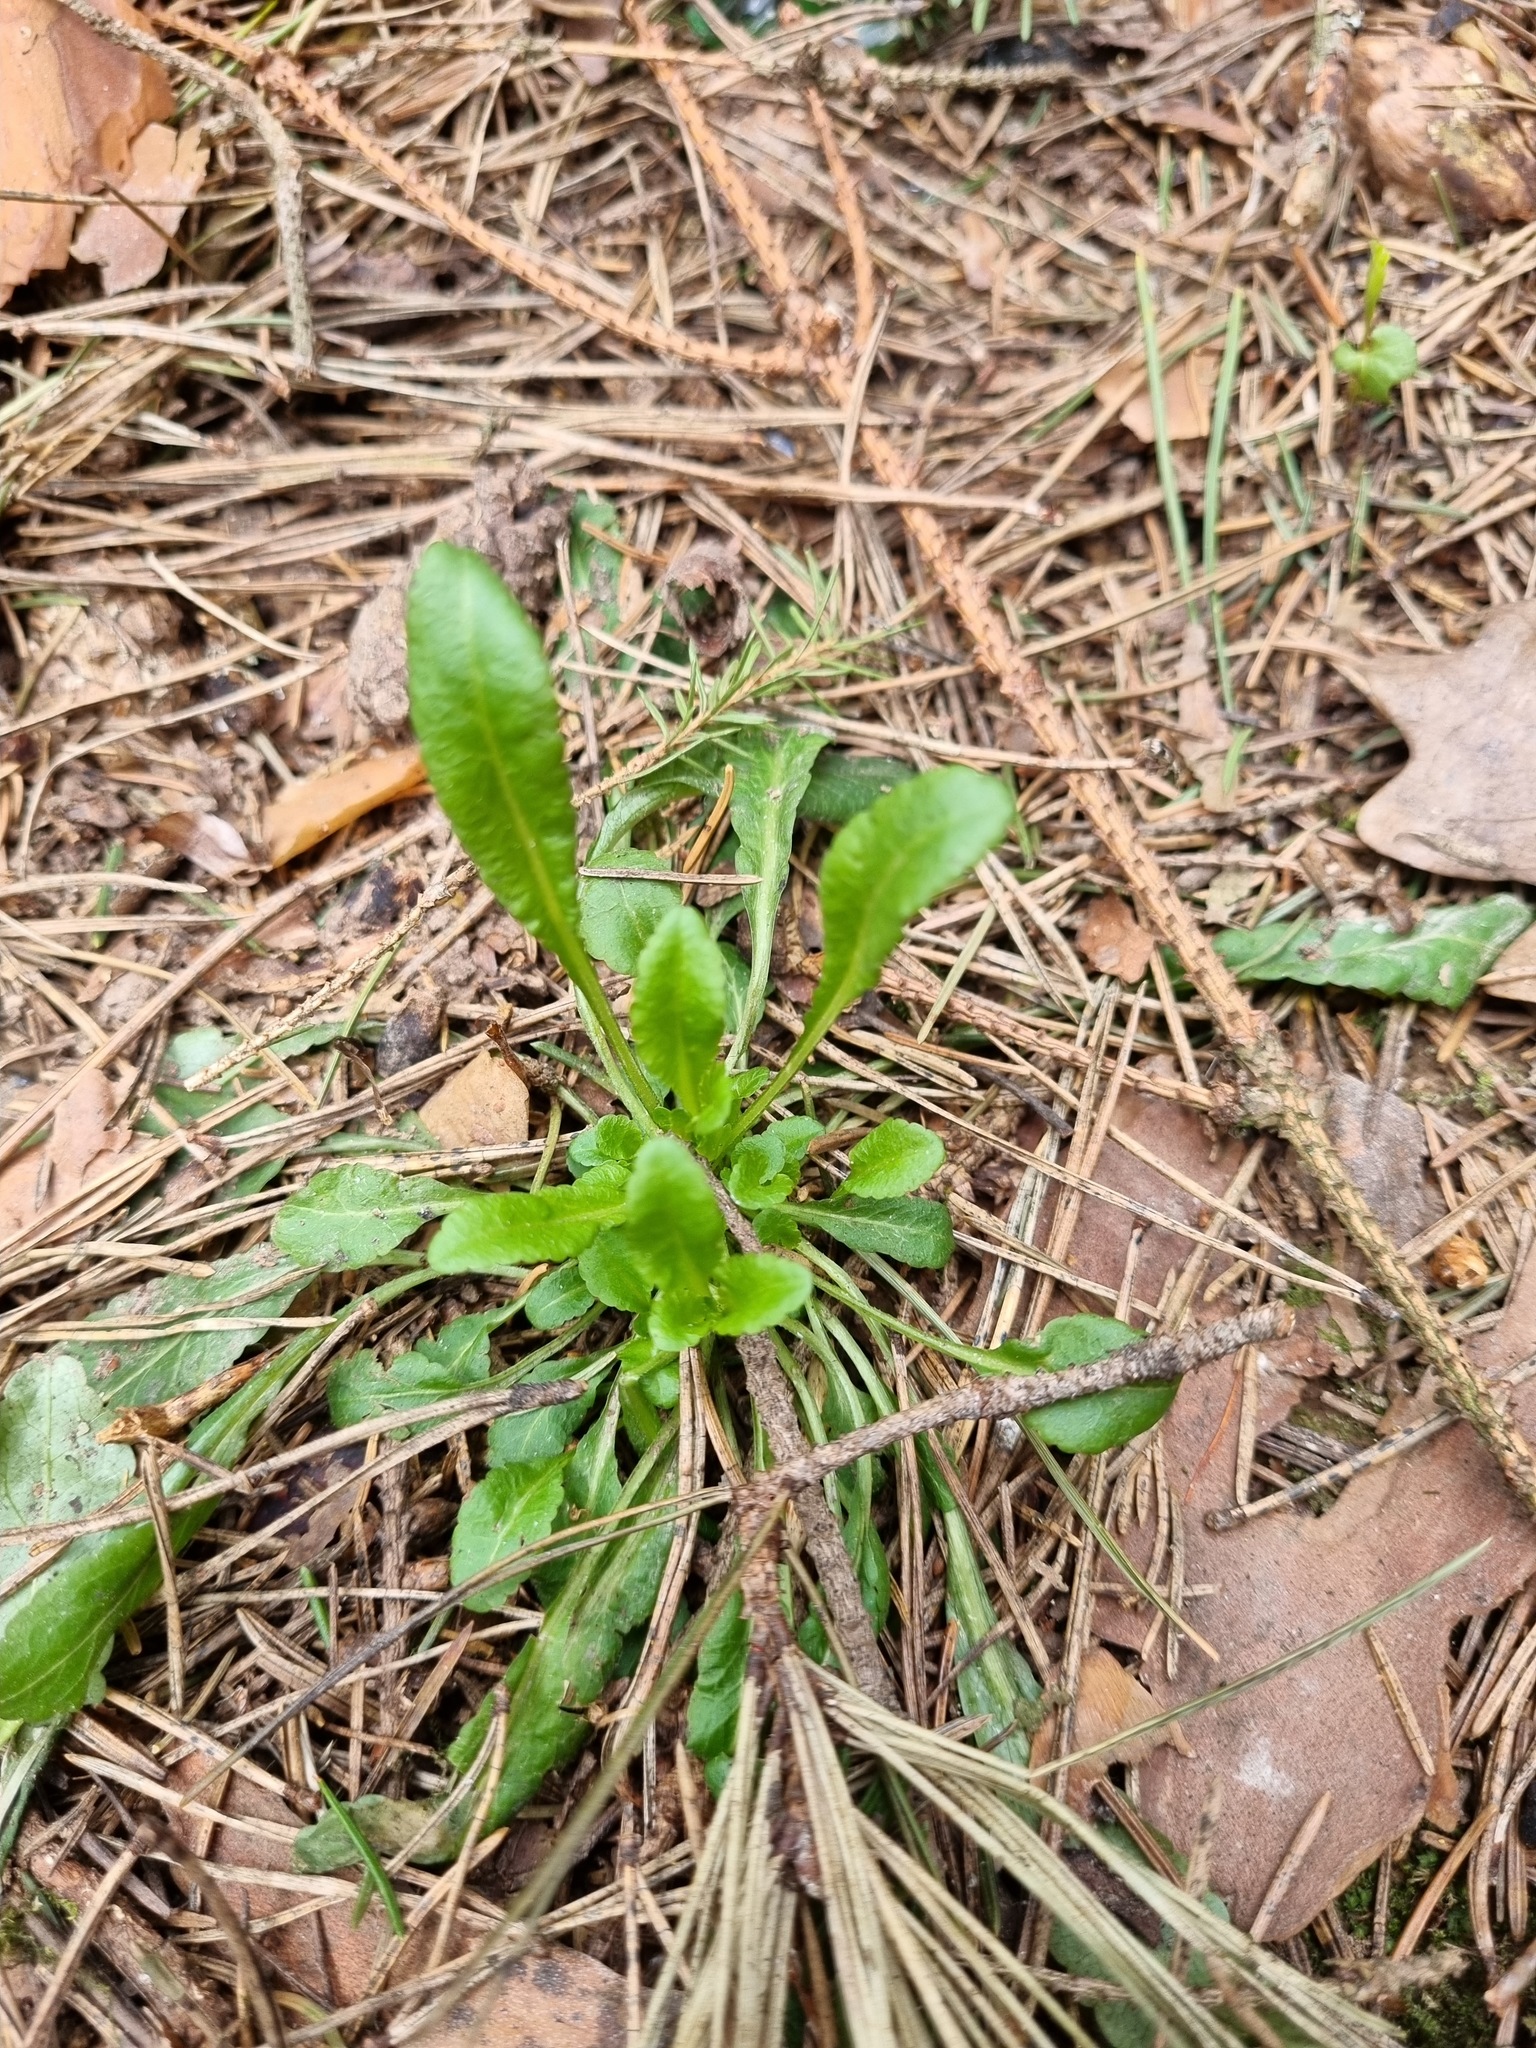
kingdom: Plantae
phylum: Tracheophyta
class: Magnoliopsida
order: Caryophyllales
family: Caryophyllaceae
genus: Silene
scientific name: Silene nutans
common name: Nottingham catchfly
